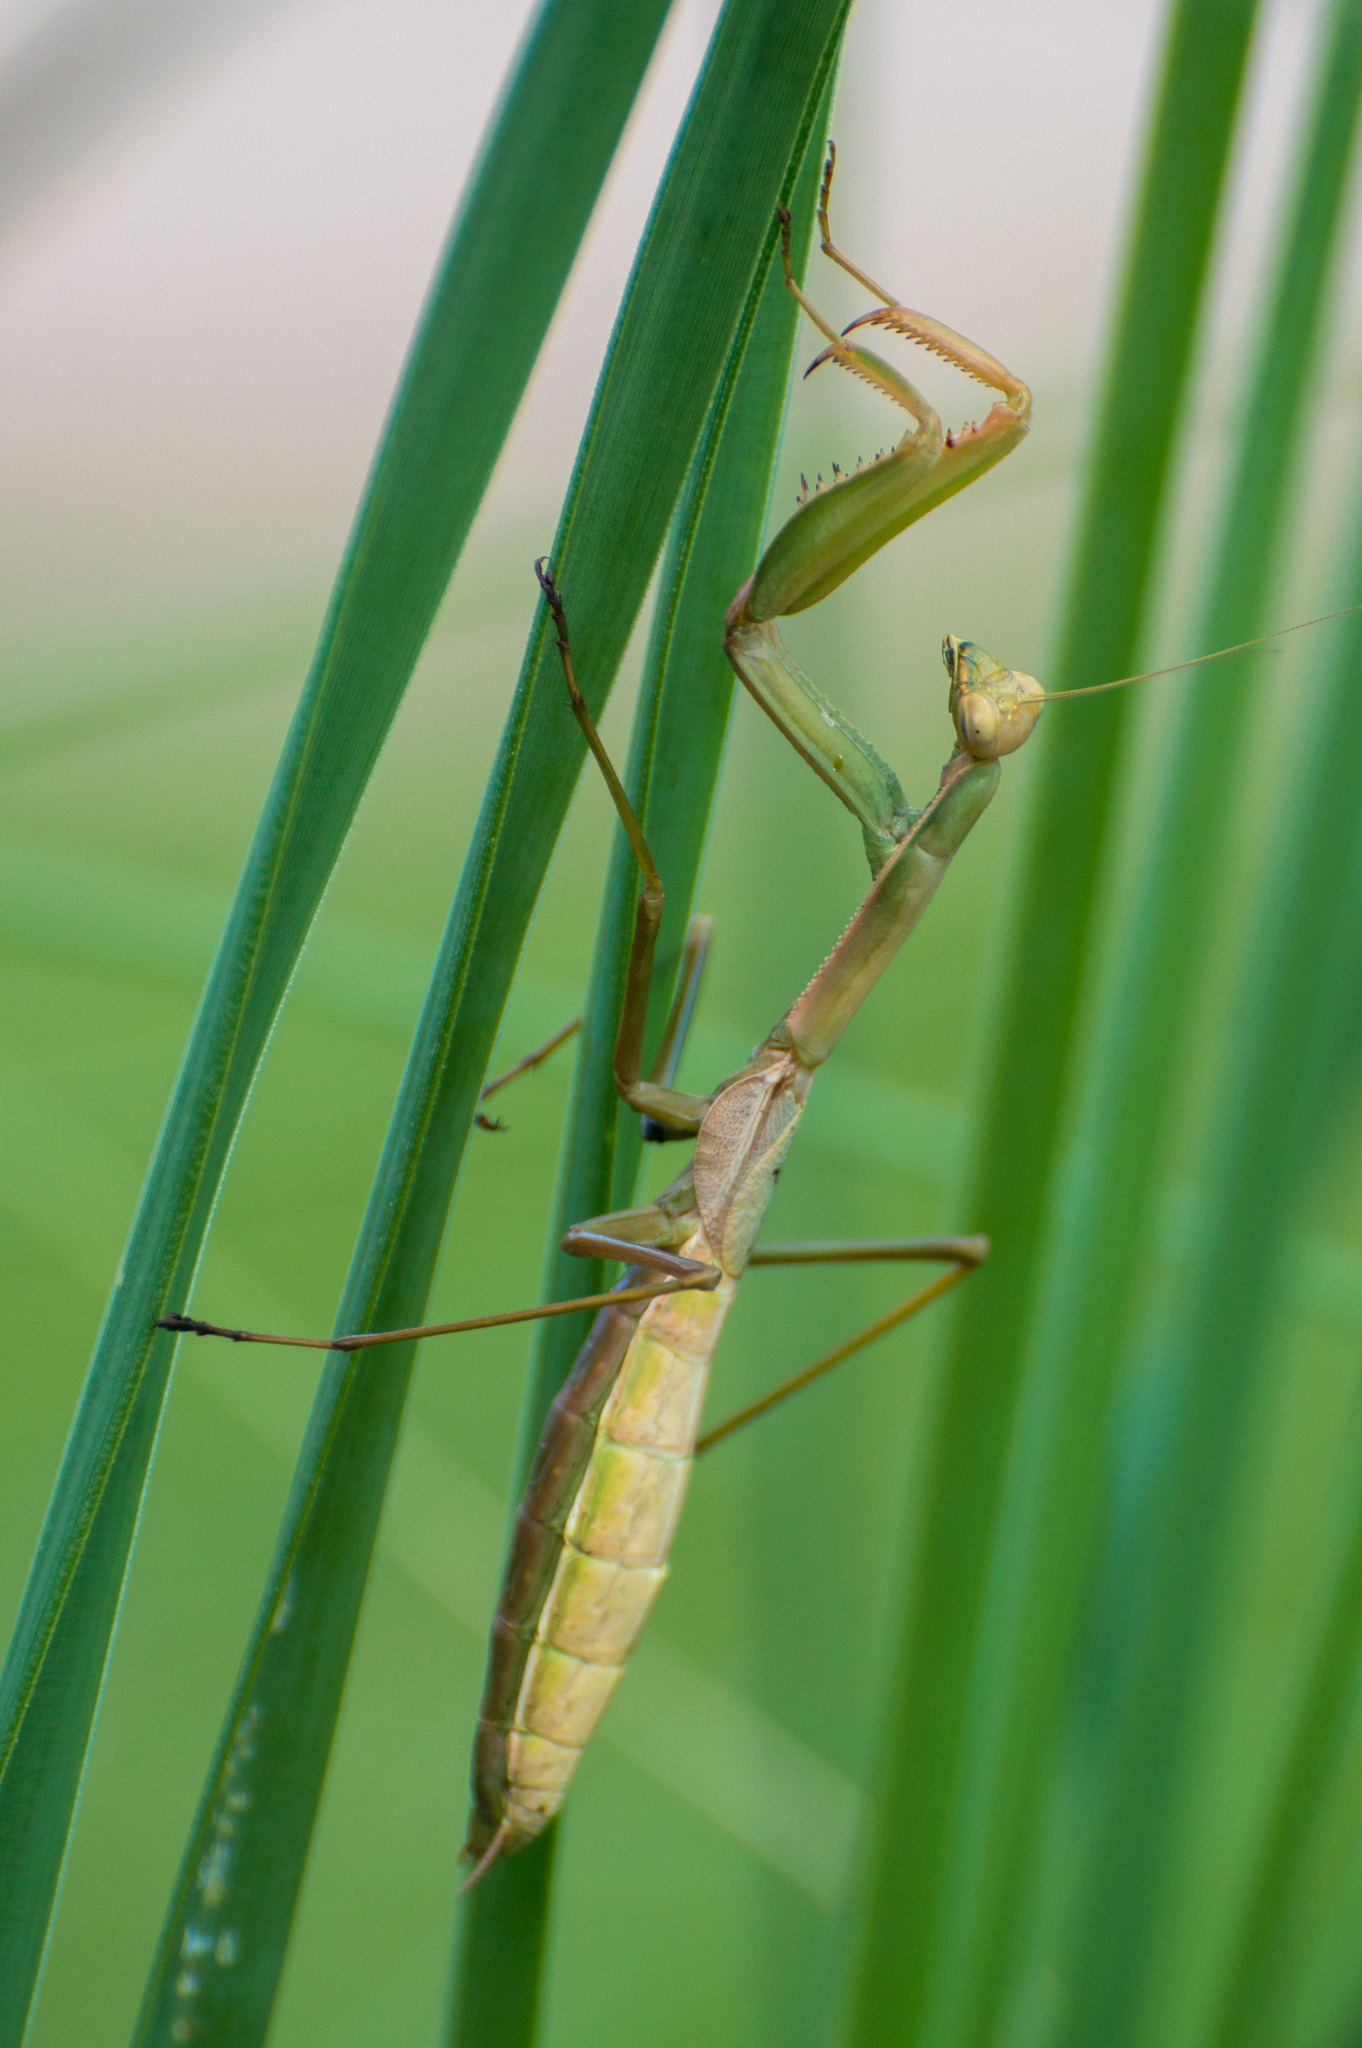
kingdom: Animalia
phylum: Arthropoda
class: Insecta
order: Mantodea
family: Coptopterygidae
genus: Coptopteryx
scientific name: Coptopteryx argentina
